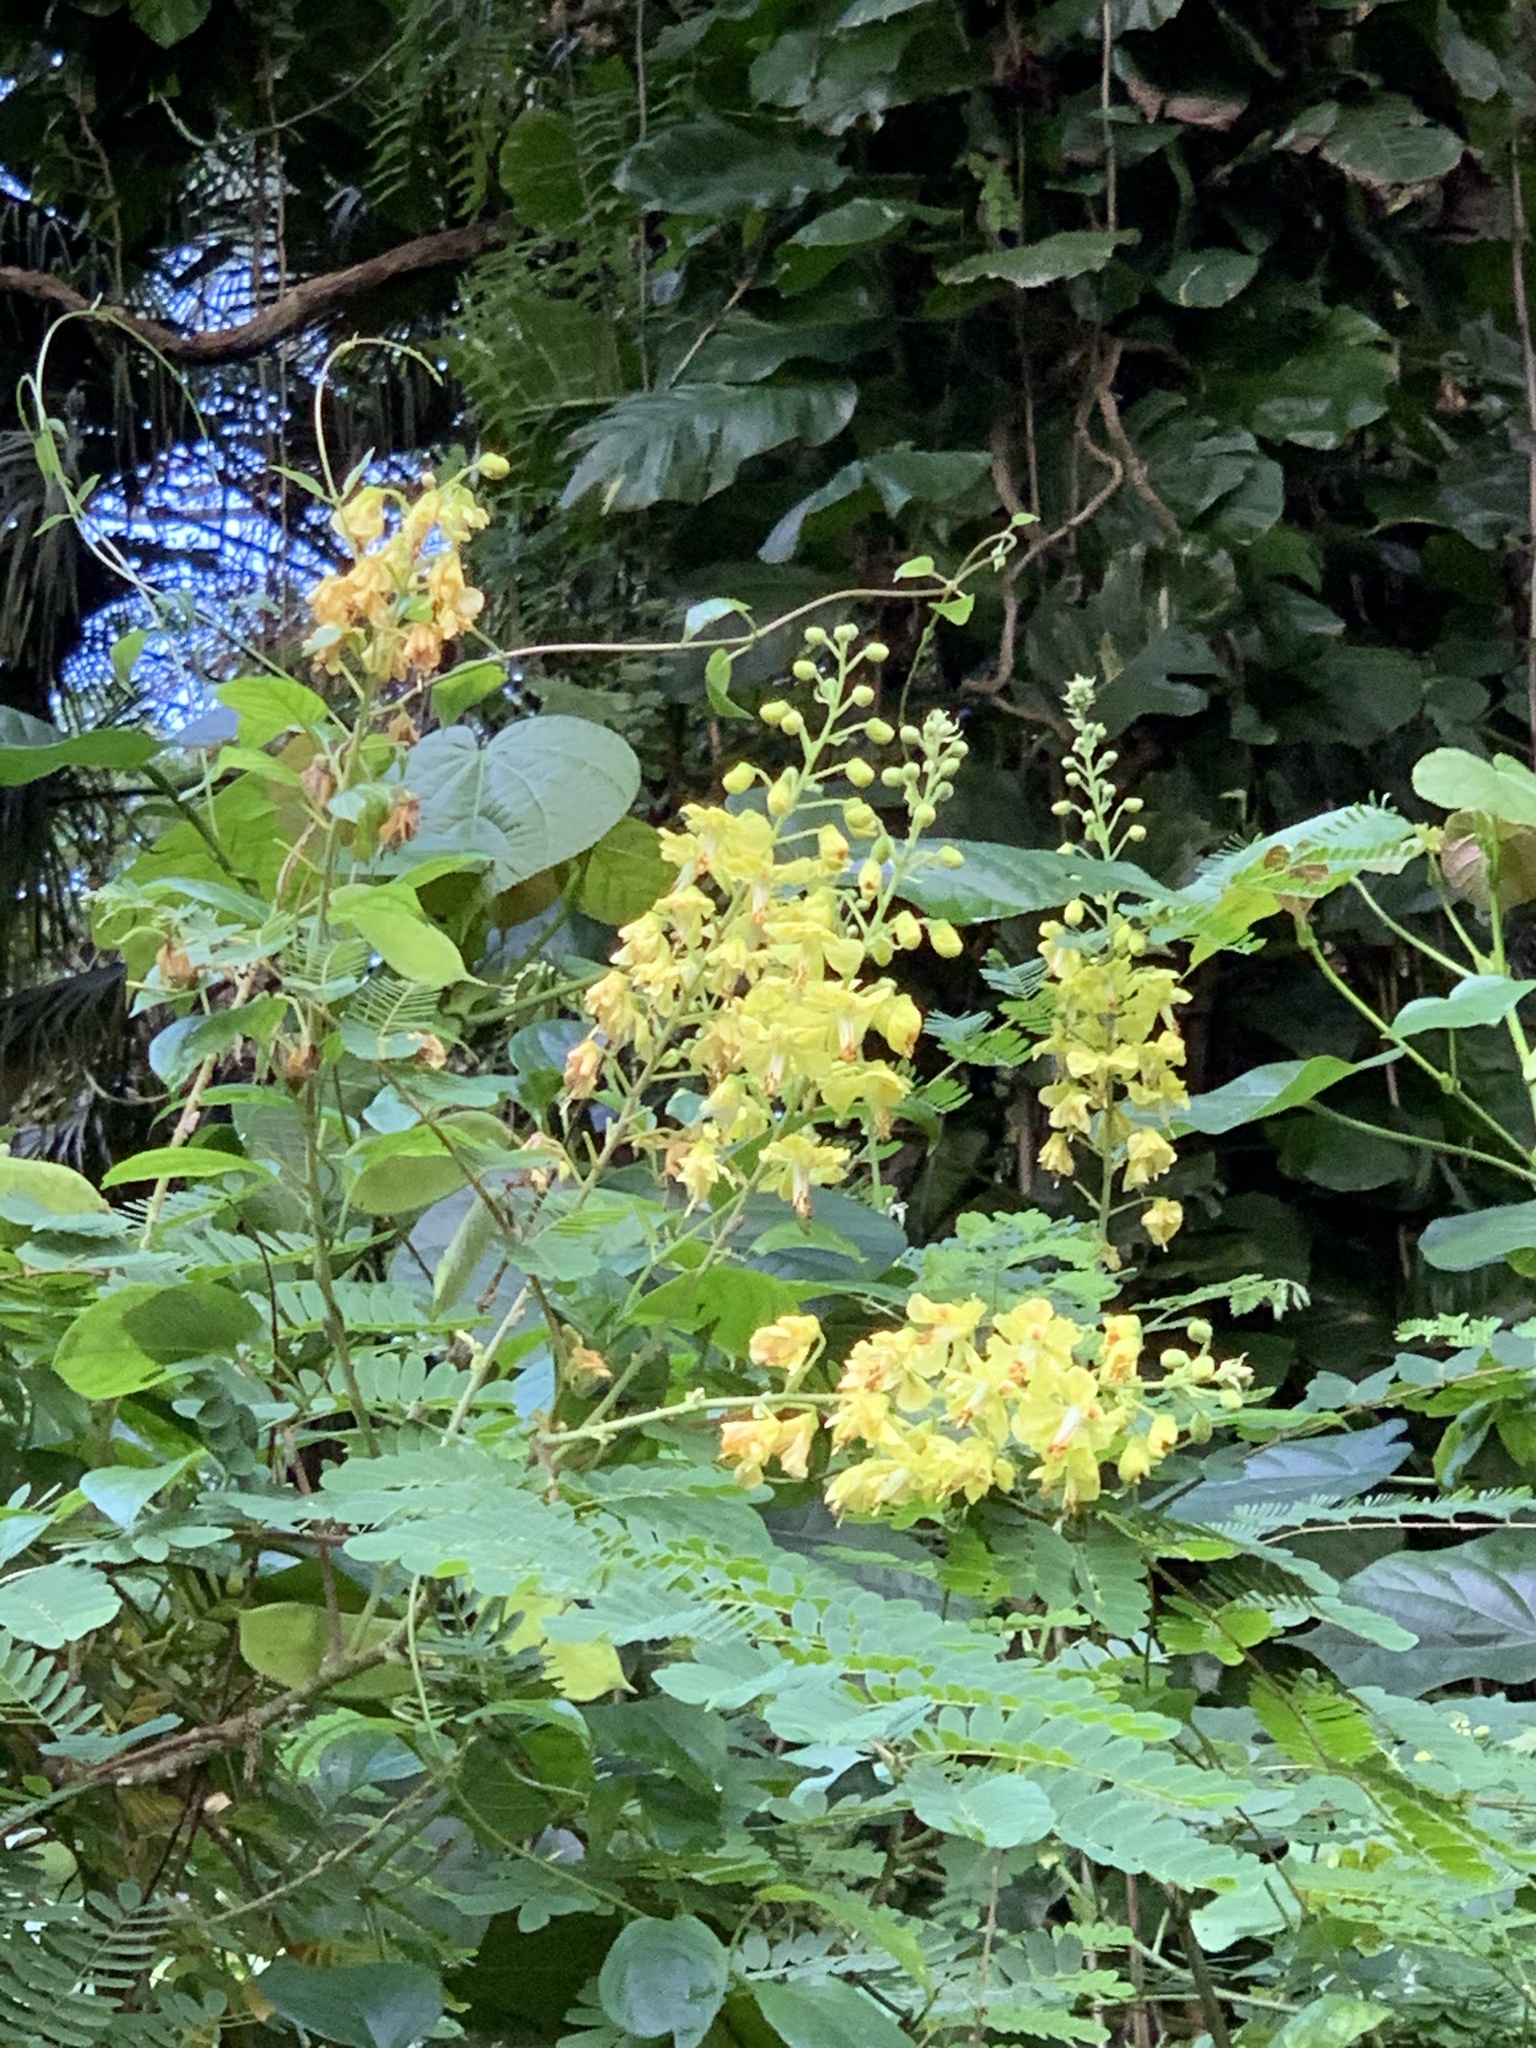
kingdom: Plantae
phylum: Tracheophyta
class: Magnoliopsida
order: Fabales
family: Fabaceae
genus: Biancaea
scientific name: Biancaea decapetala
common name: Cat's claw
